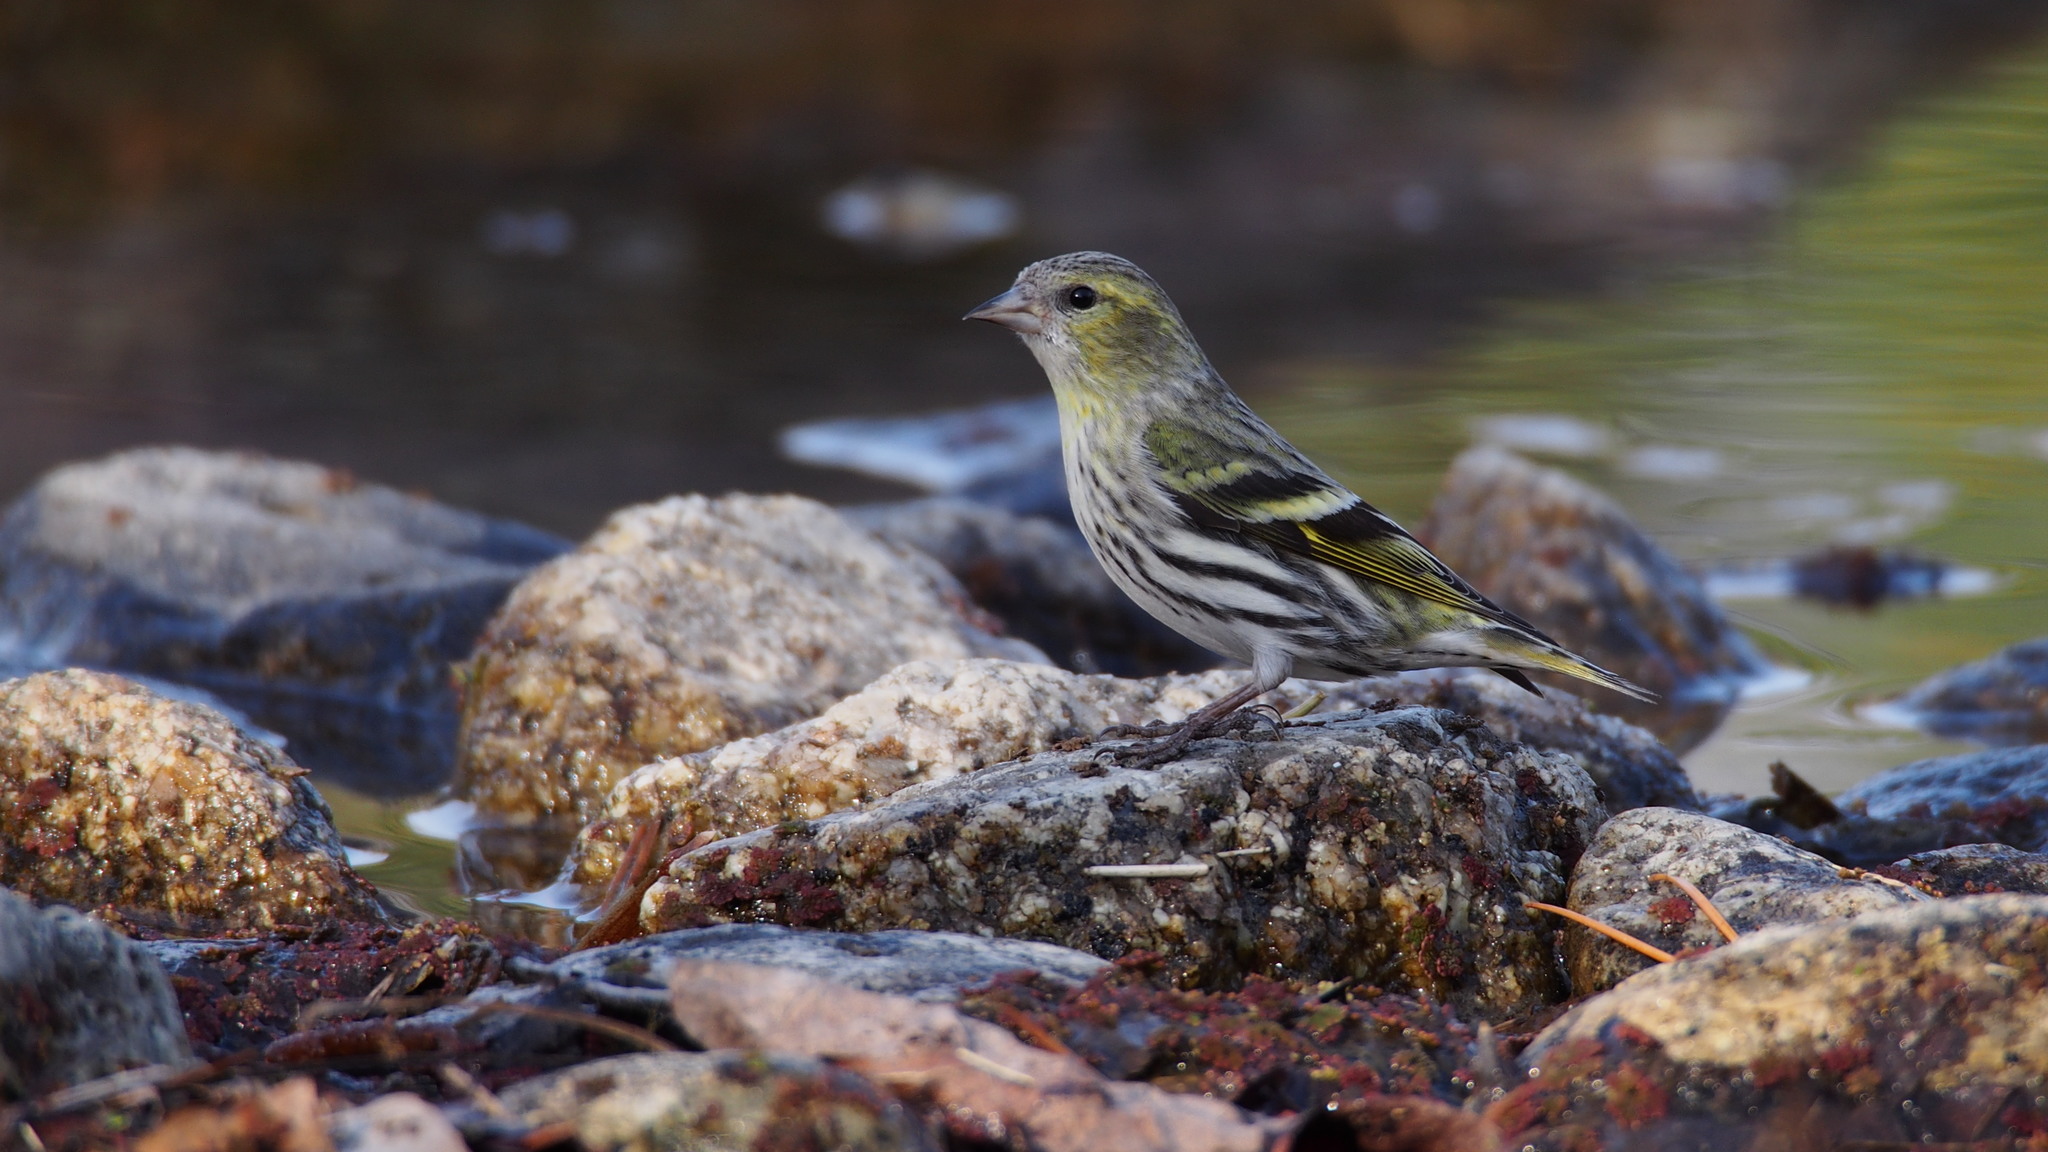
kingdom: Animalia
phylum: Chordata
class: Aves
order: Passeriformes
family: Fringillidae
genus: Spinus
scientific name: Spinus spinus
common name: Eurasian siskin
